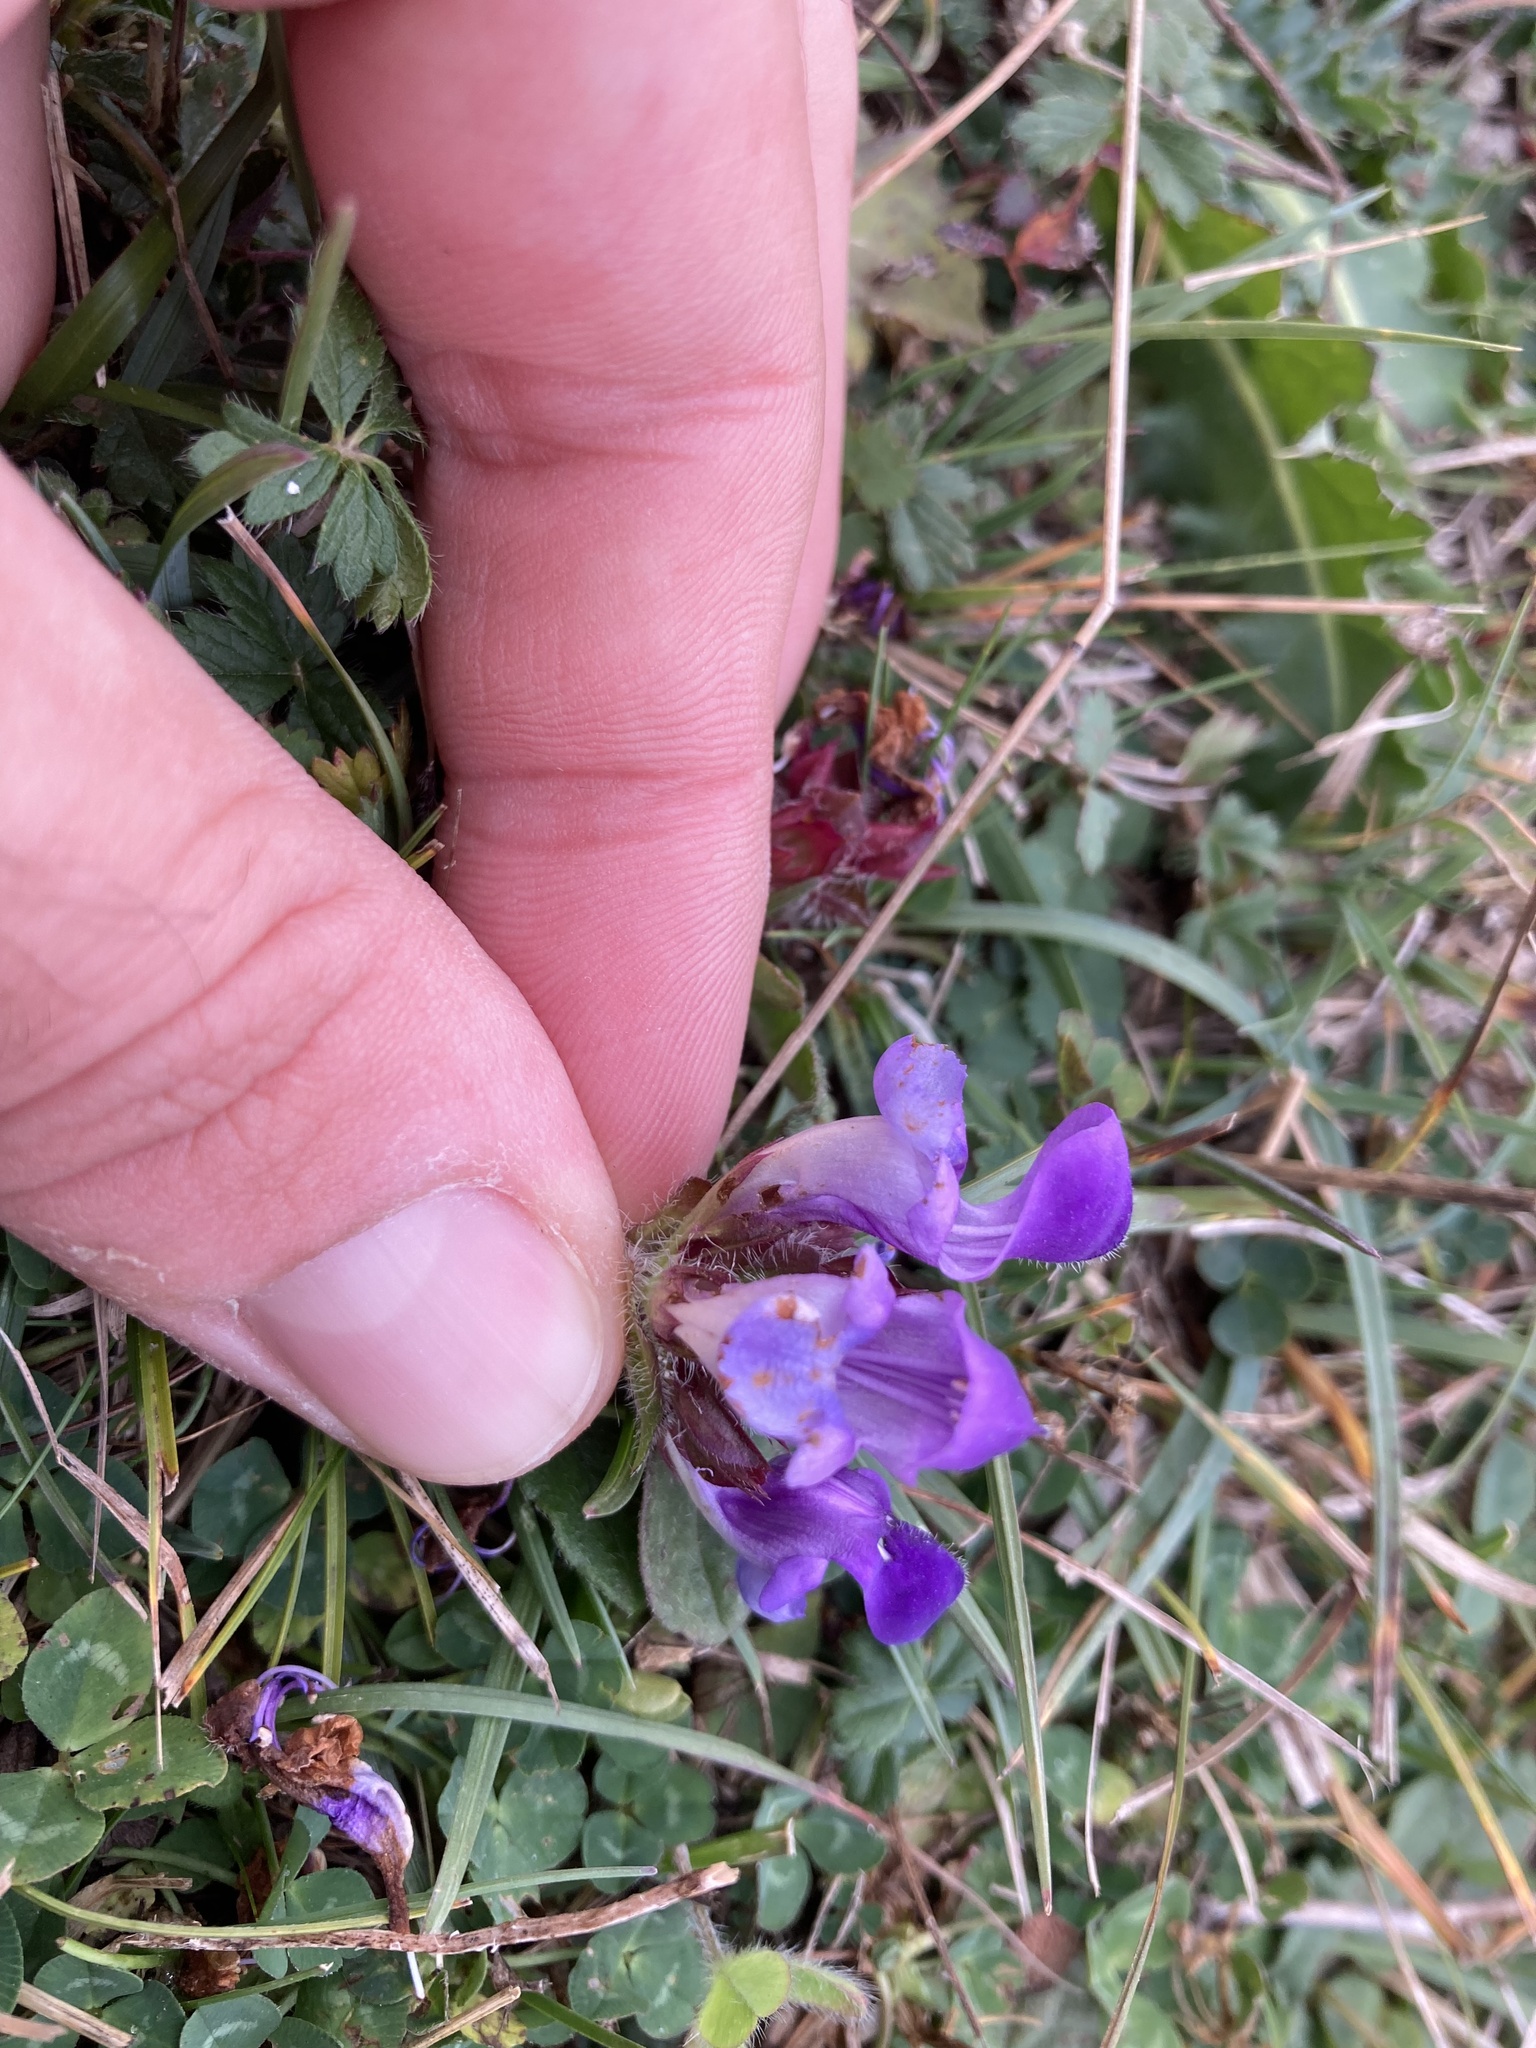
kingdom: Plantae
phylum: Tracheophyta
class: Magnoliopsida
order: Lamiales
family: Lamiaceae
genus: Prunella
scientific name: Prunella grandiflora
